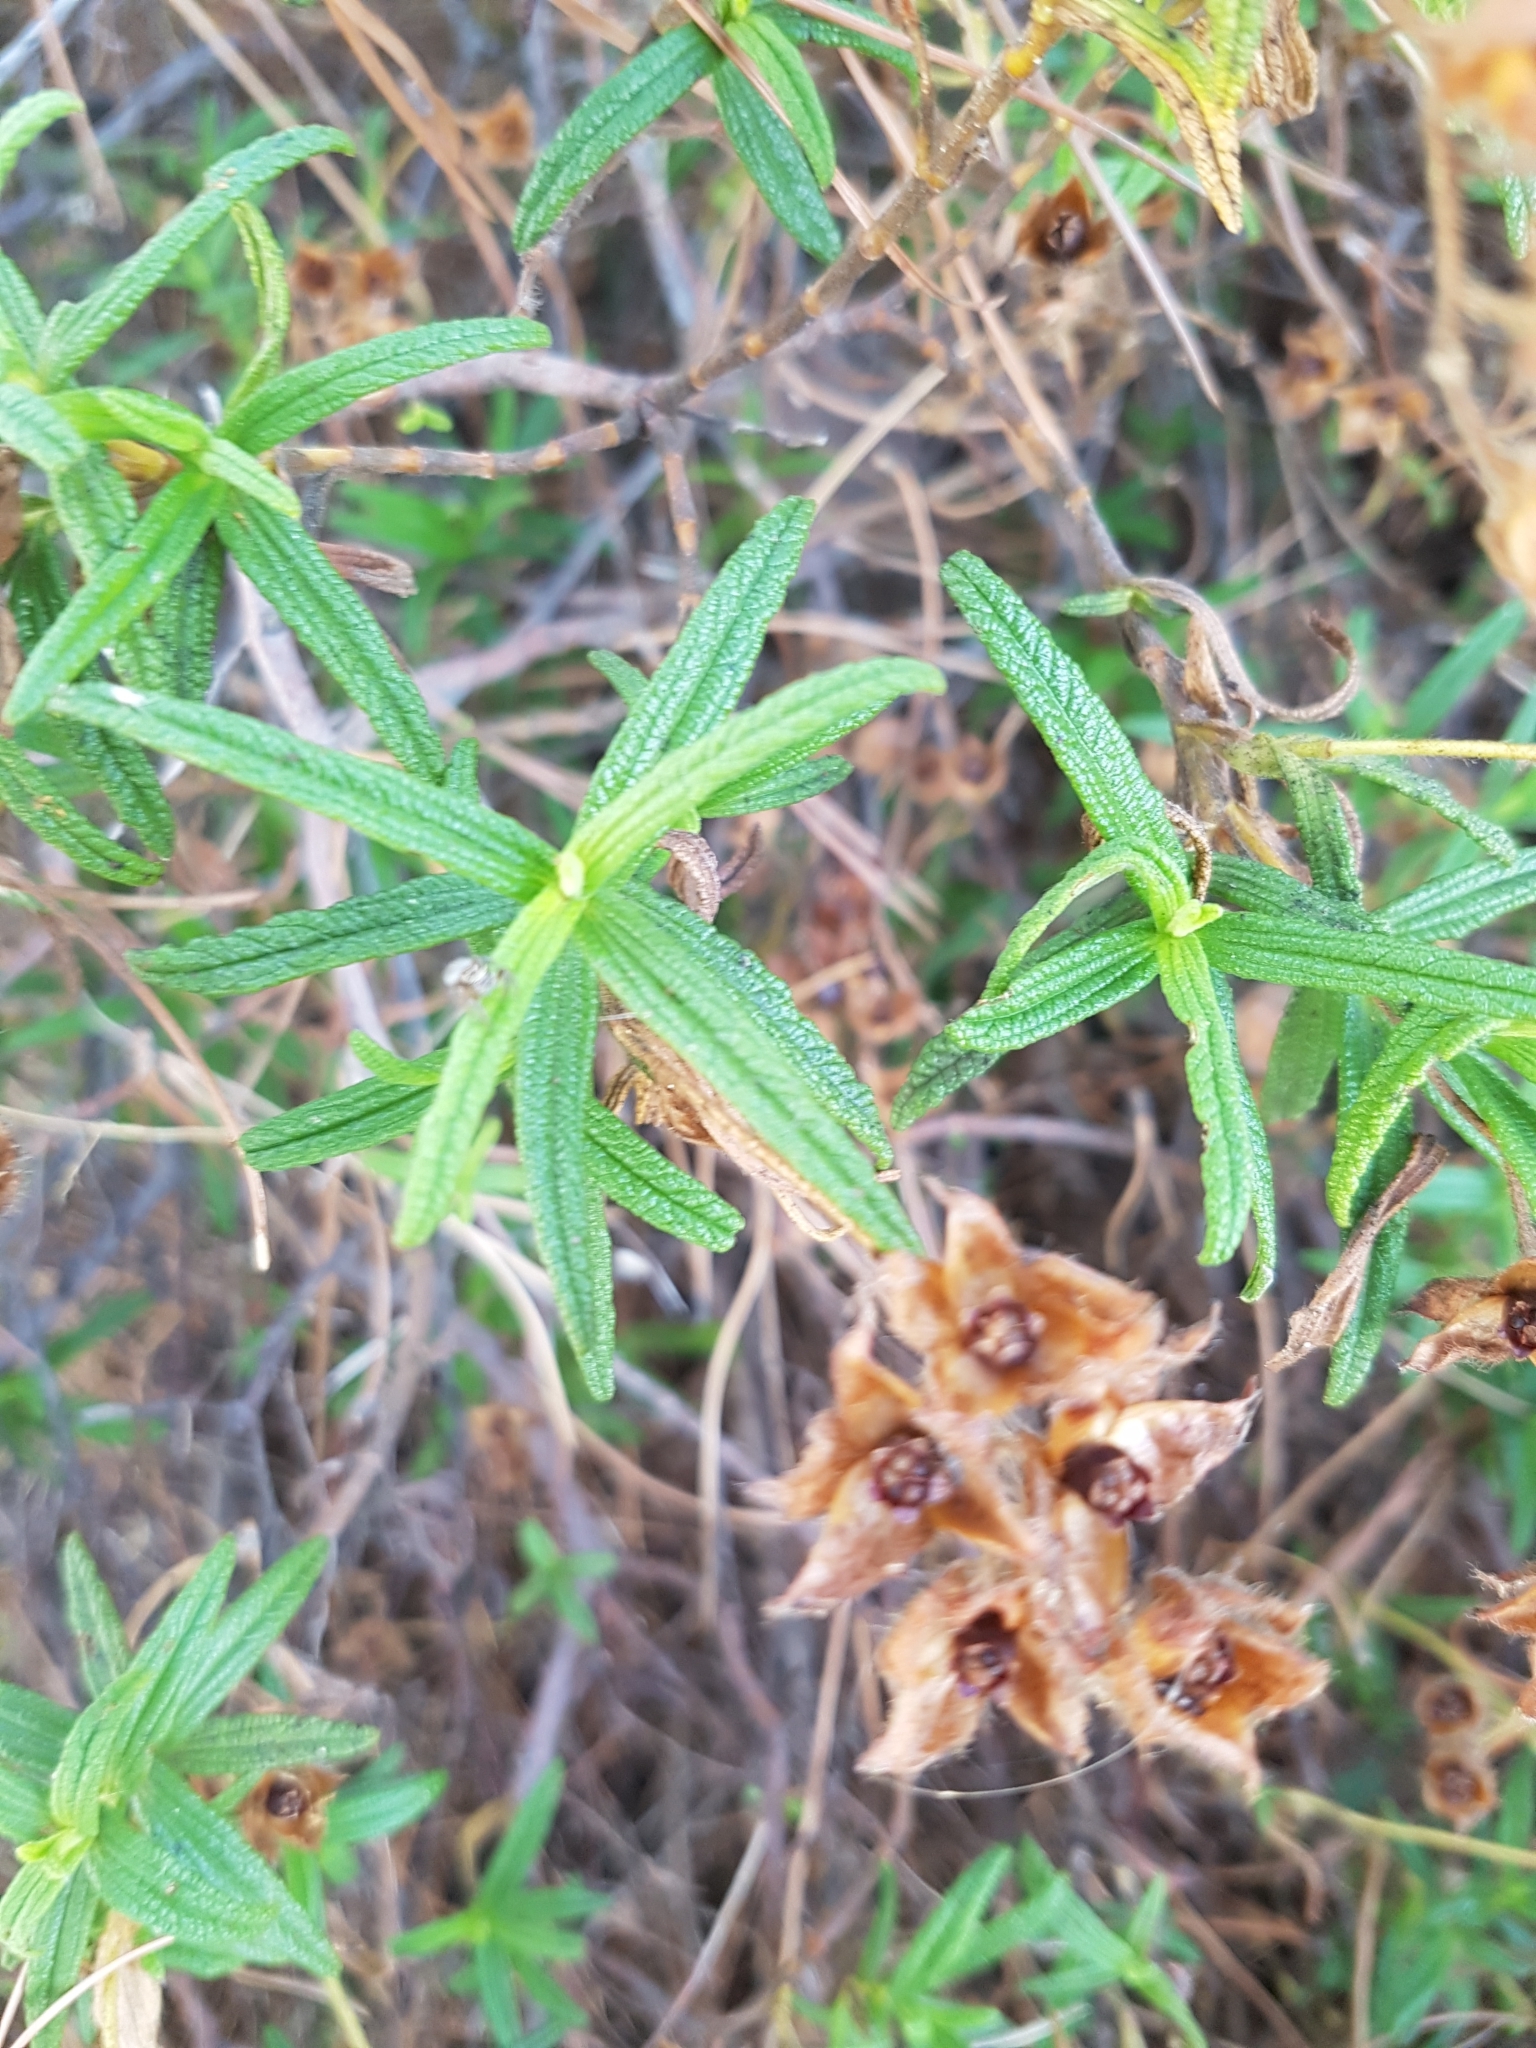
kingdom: Plantae
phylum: Tracheophyta
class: Magnoliopsida
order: Malvales
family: Cistaceae
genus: Cistus
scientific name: Cistus monspeliensis
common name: Montpelier cistus
